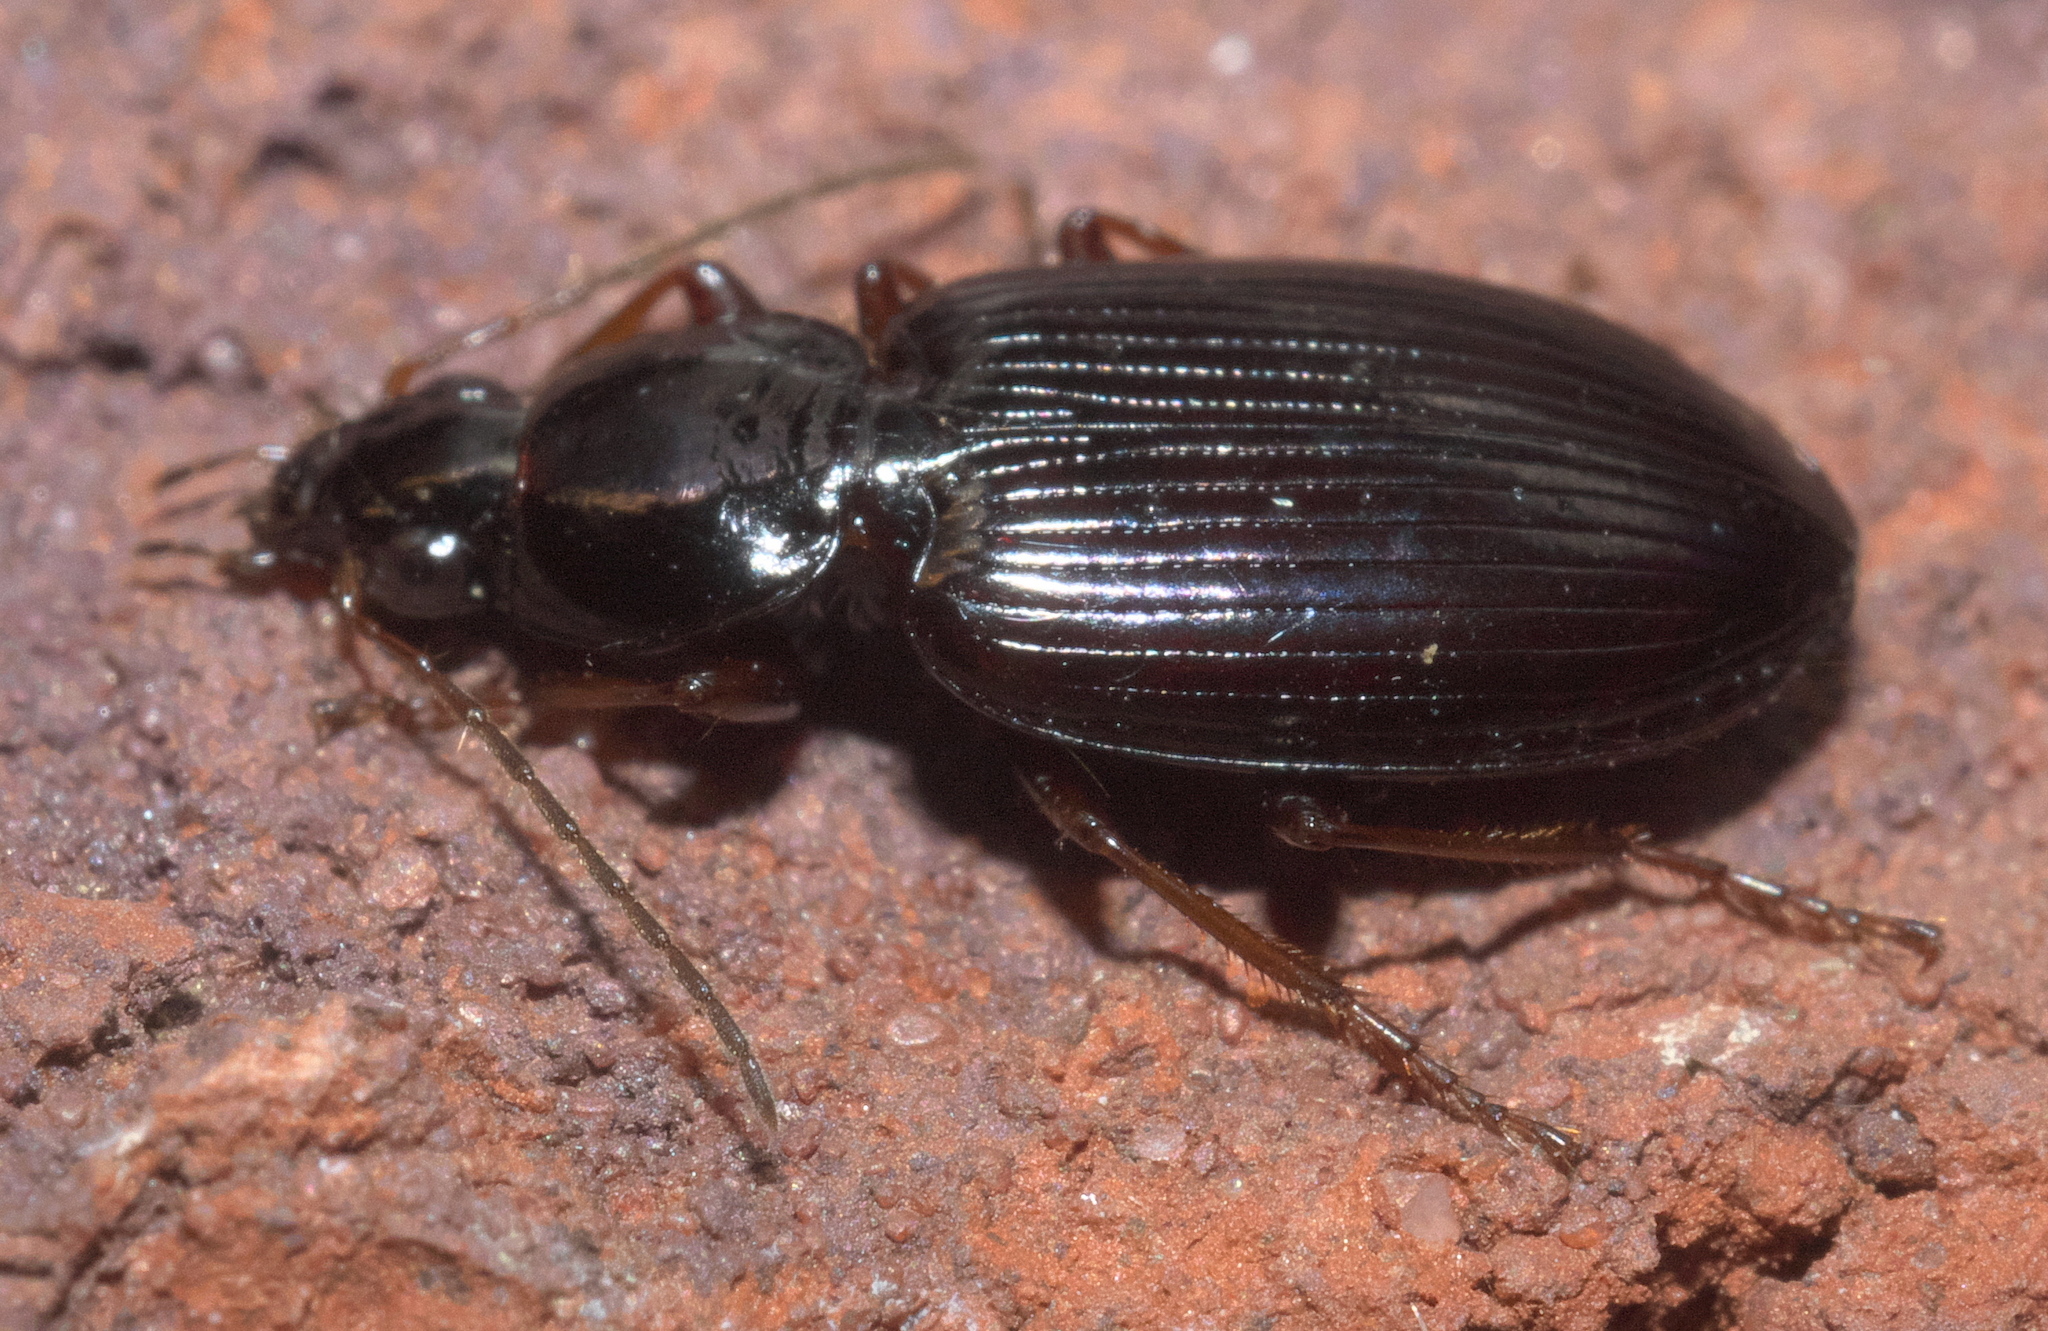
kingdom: Animalia
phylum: Arthropoda
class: Insecta
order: Coleoptera
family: Carabidae
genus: Agonum
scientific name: Agonum punctiforme
